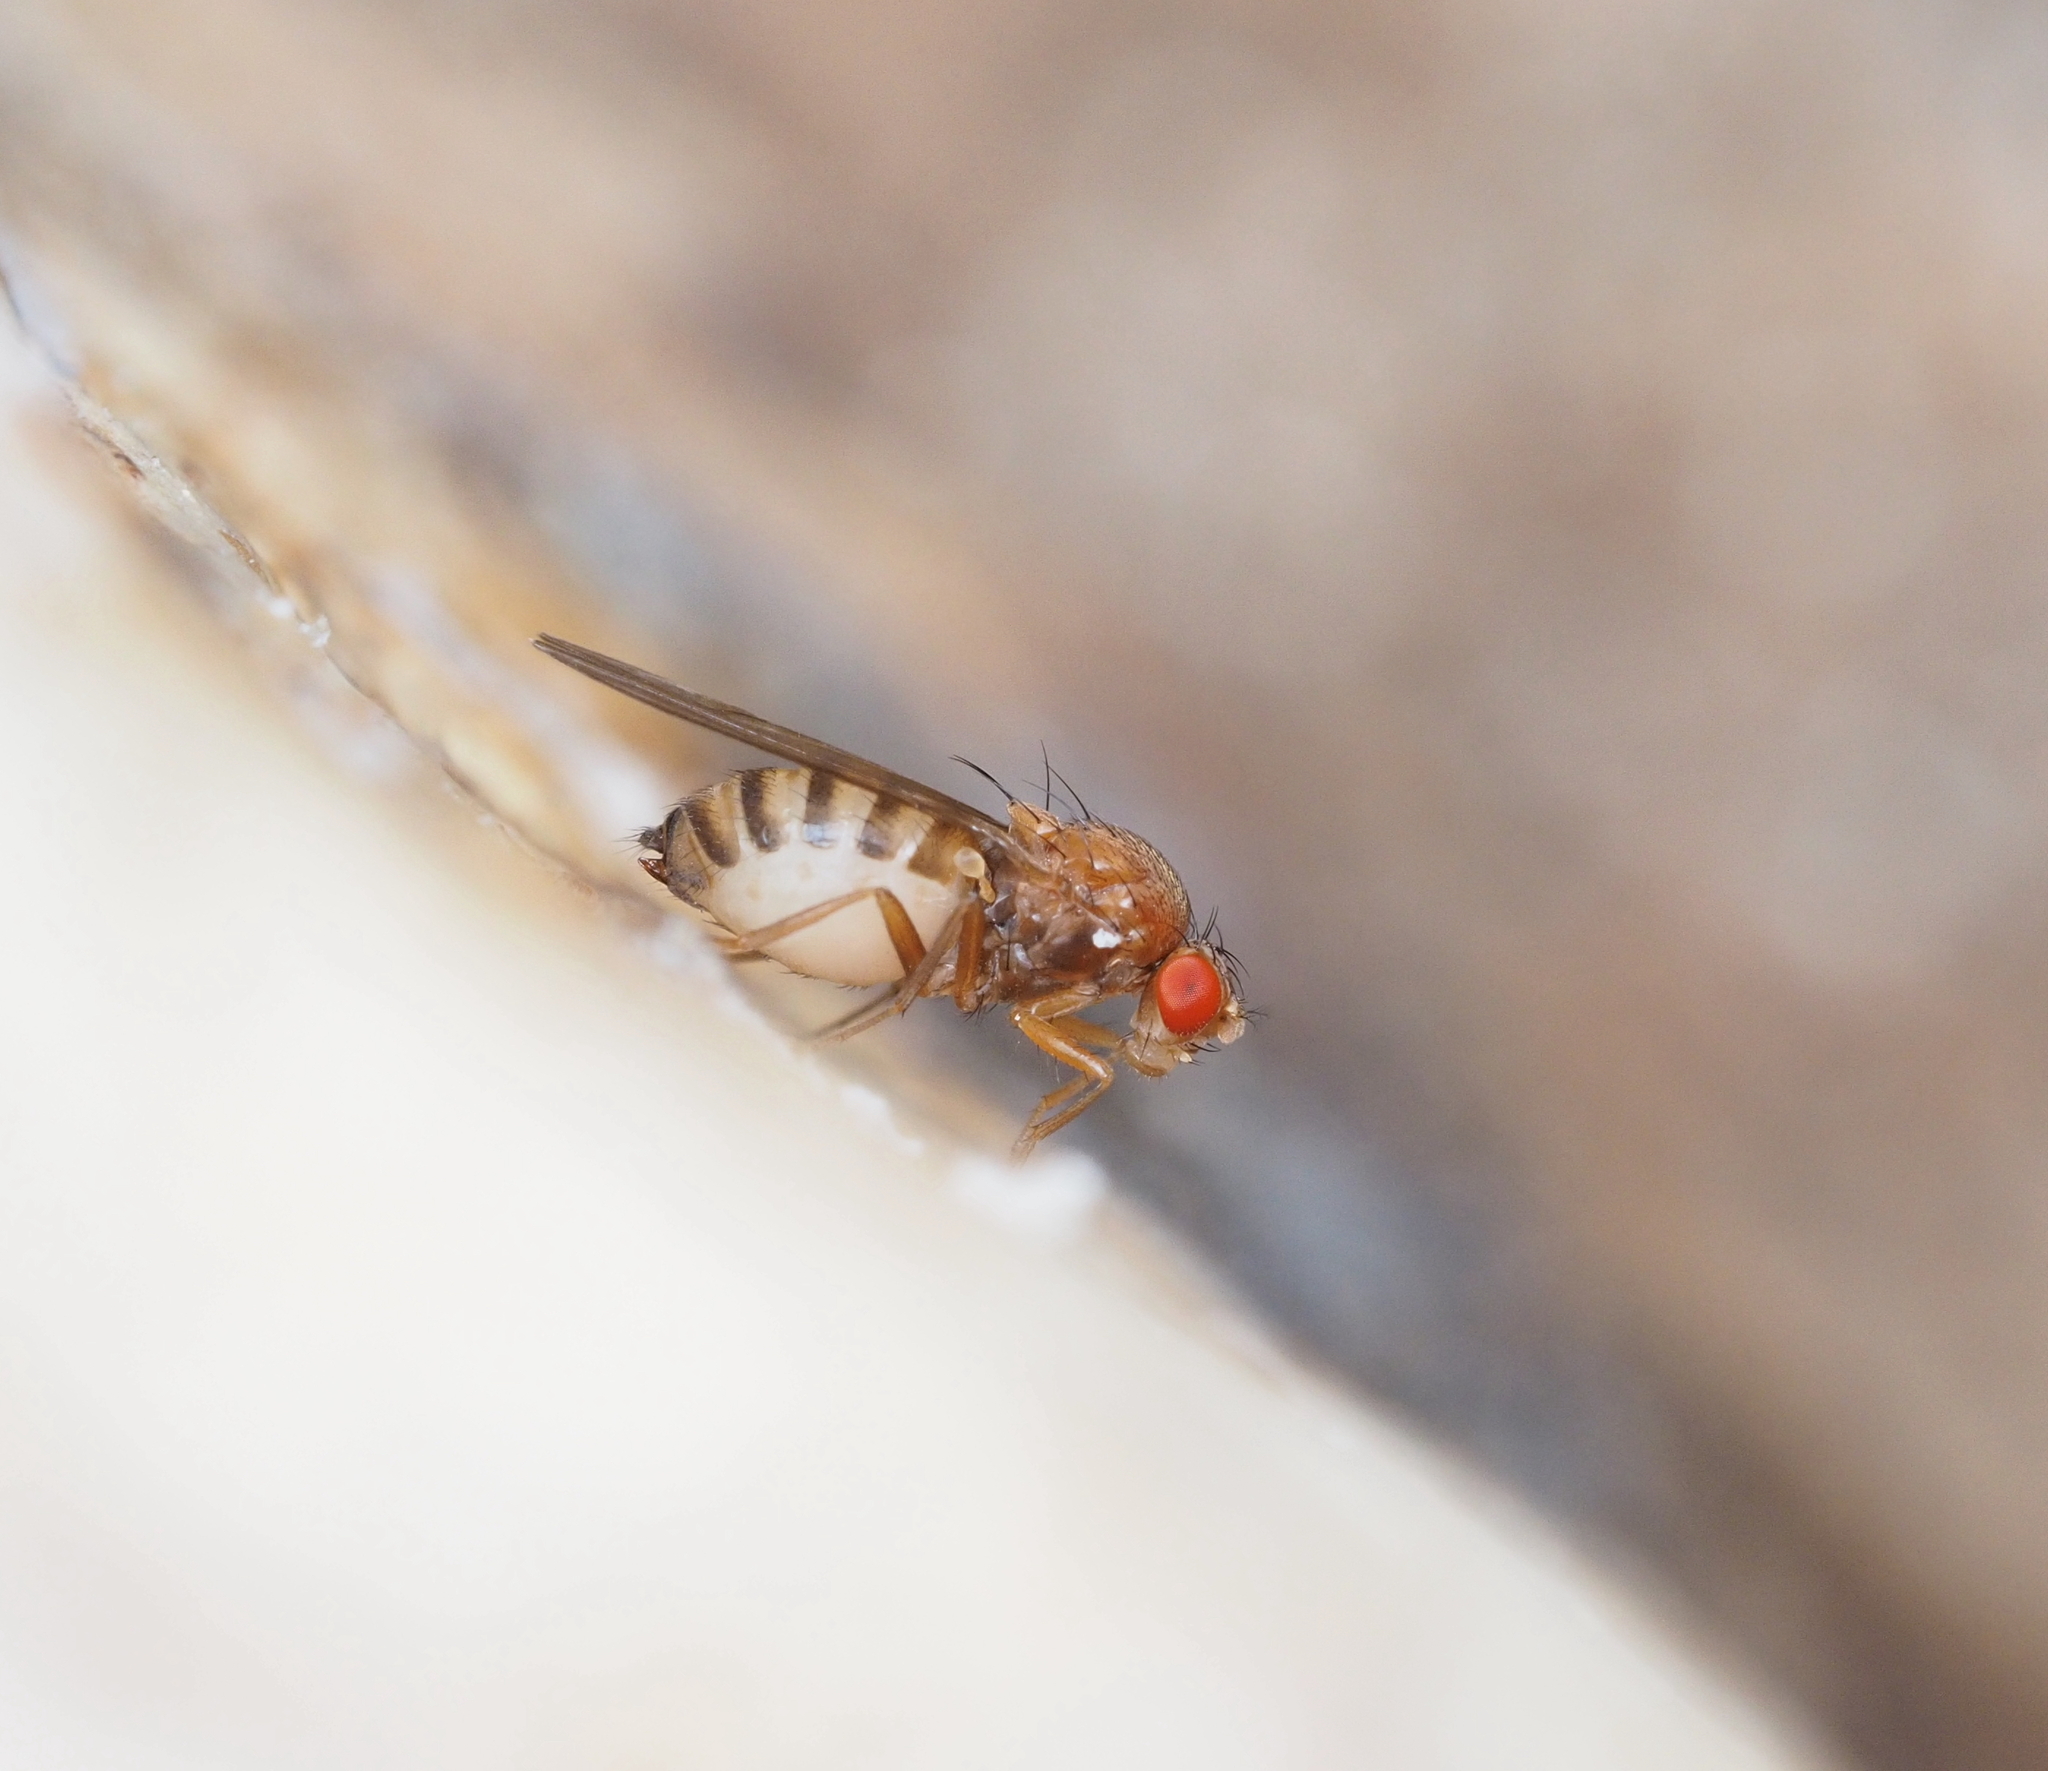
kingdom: Animalia
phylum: Arthropoda
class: Insecta
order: Diptera
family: Drosophilidae
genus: Hirtodrosophila
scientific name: Hirtodrosophila confusa
